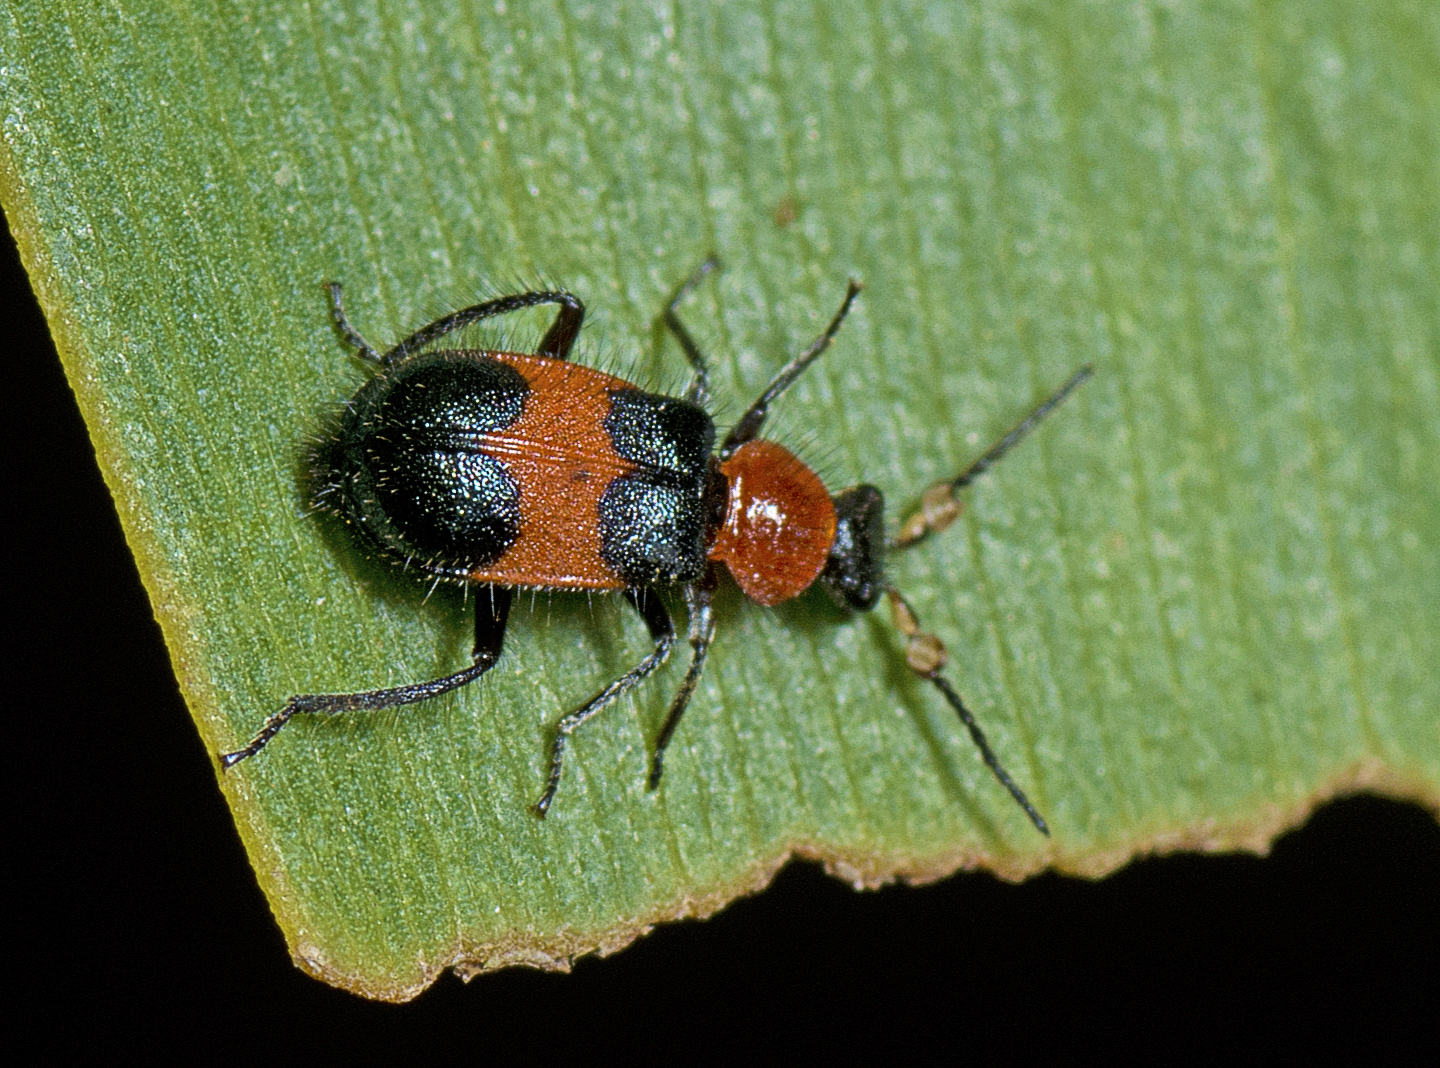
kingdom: Animalia
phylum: Arthropoda
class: Insecta
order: Coleoptera
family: Melyridae
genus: Dicranolaius
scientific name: Dicranolaius
